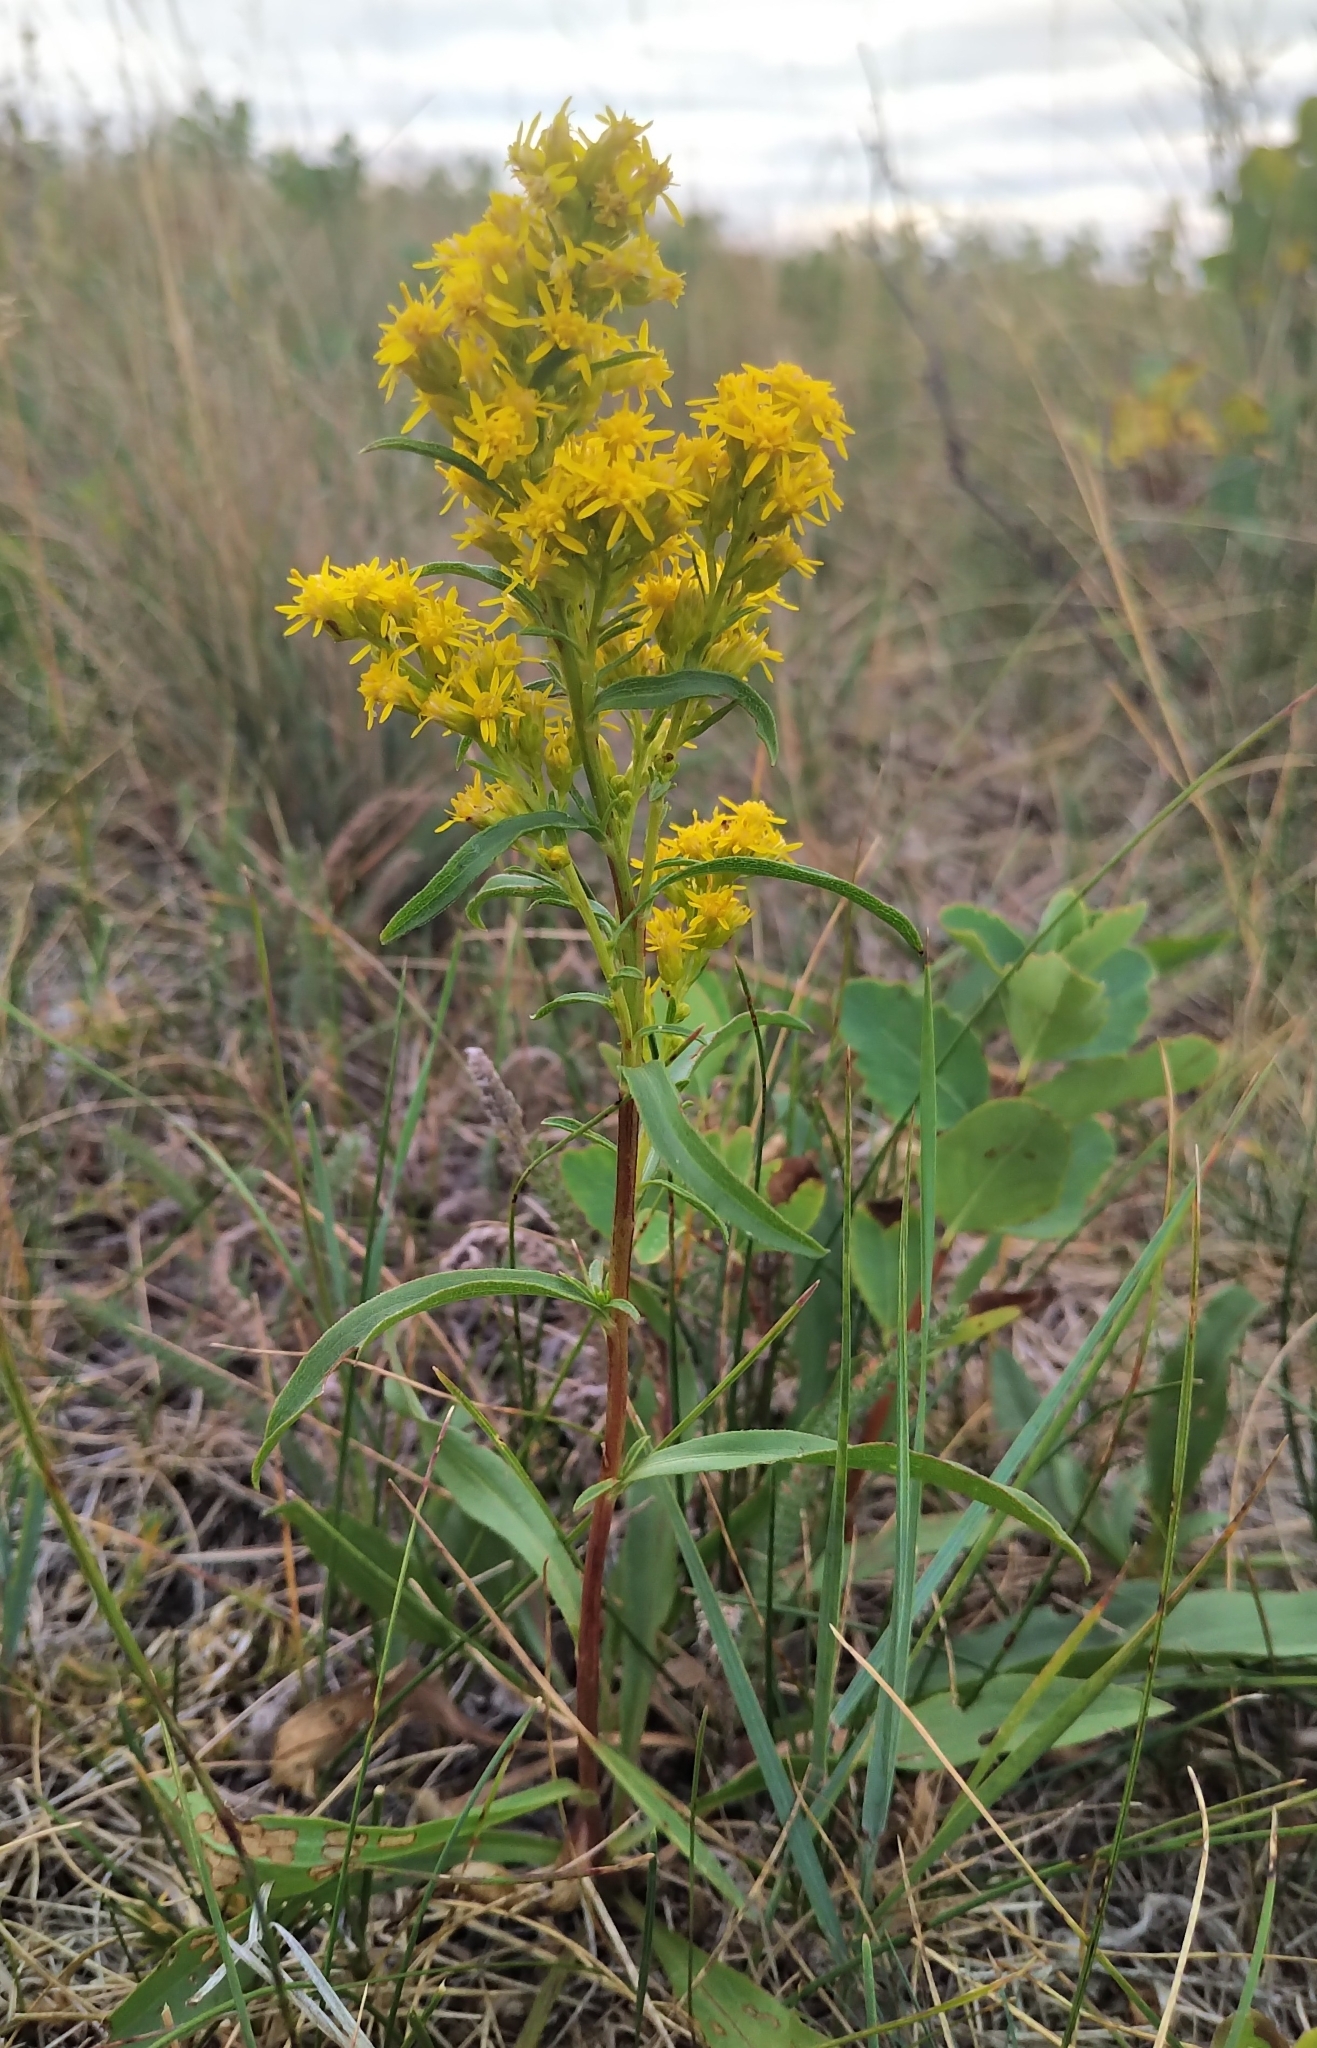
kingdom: Plantae
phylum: Tracheophyta
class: Magnoliopsida
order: Asterales
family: Asteraceae
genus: Solidago
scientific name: Solidago missouriensis
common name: Prairie goldenrod
